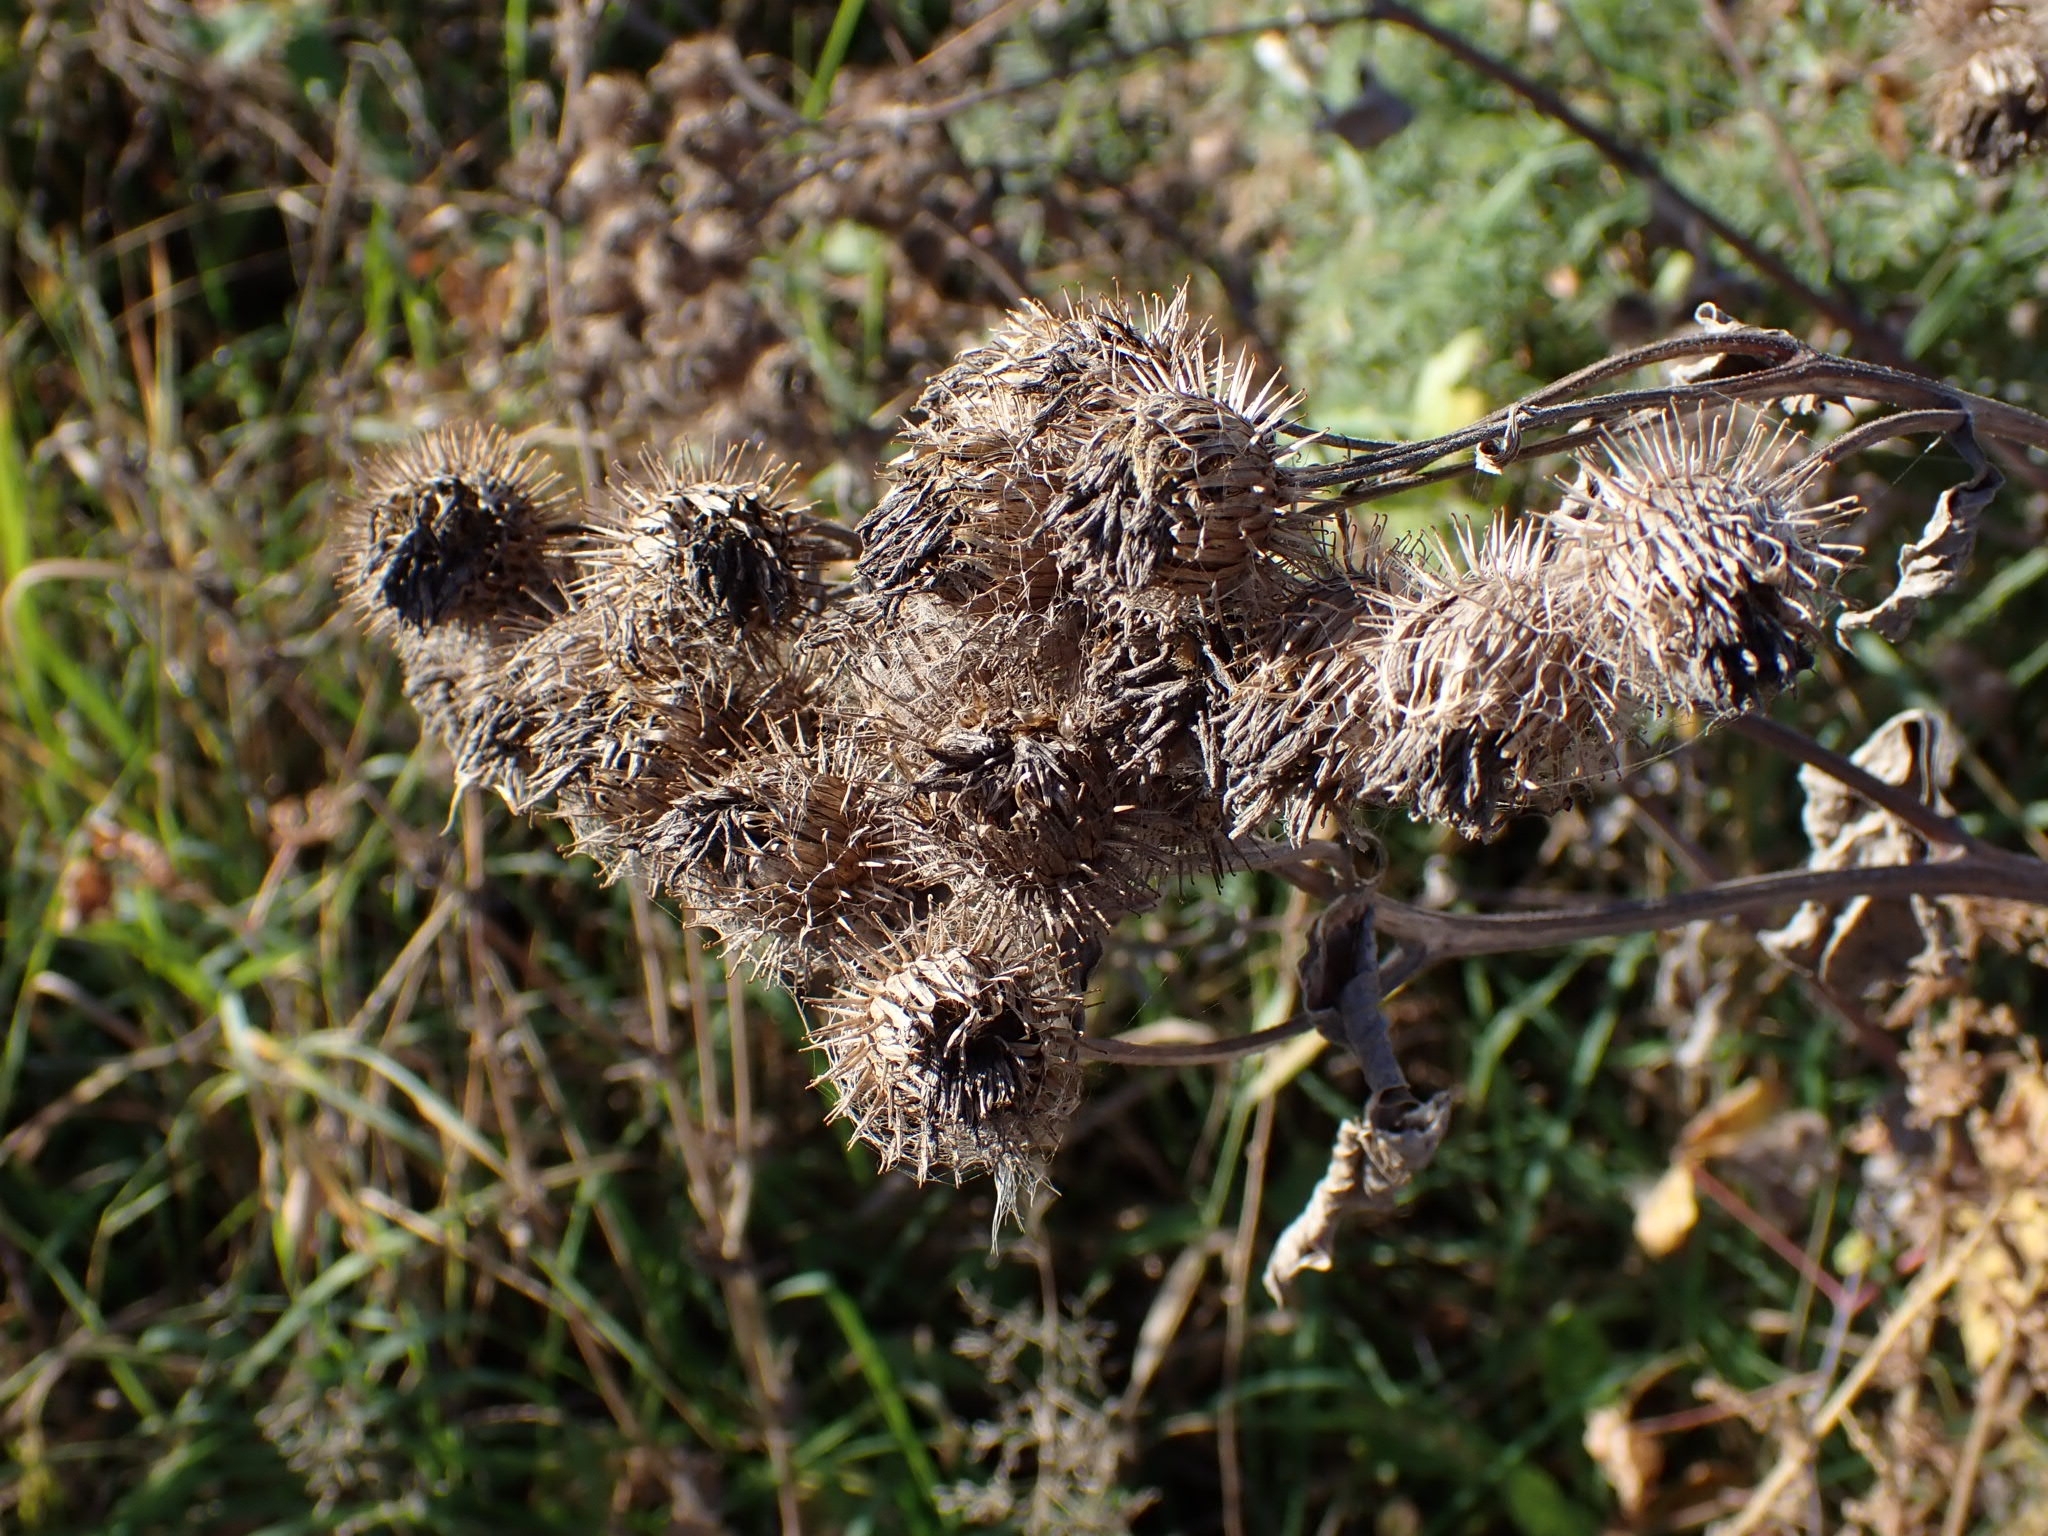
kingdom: Plantae
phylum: Tracheophyta
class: Magnoliopsida
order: Asterales
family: Asteraceae
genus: Arctium
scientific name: Arctium tomentosum
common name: Woolly burdock
